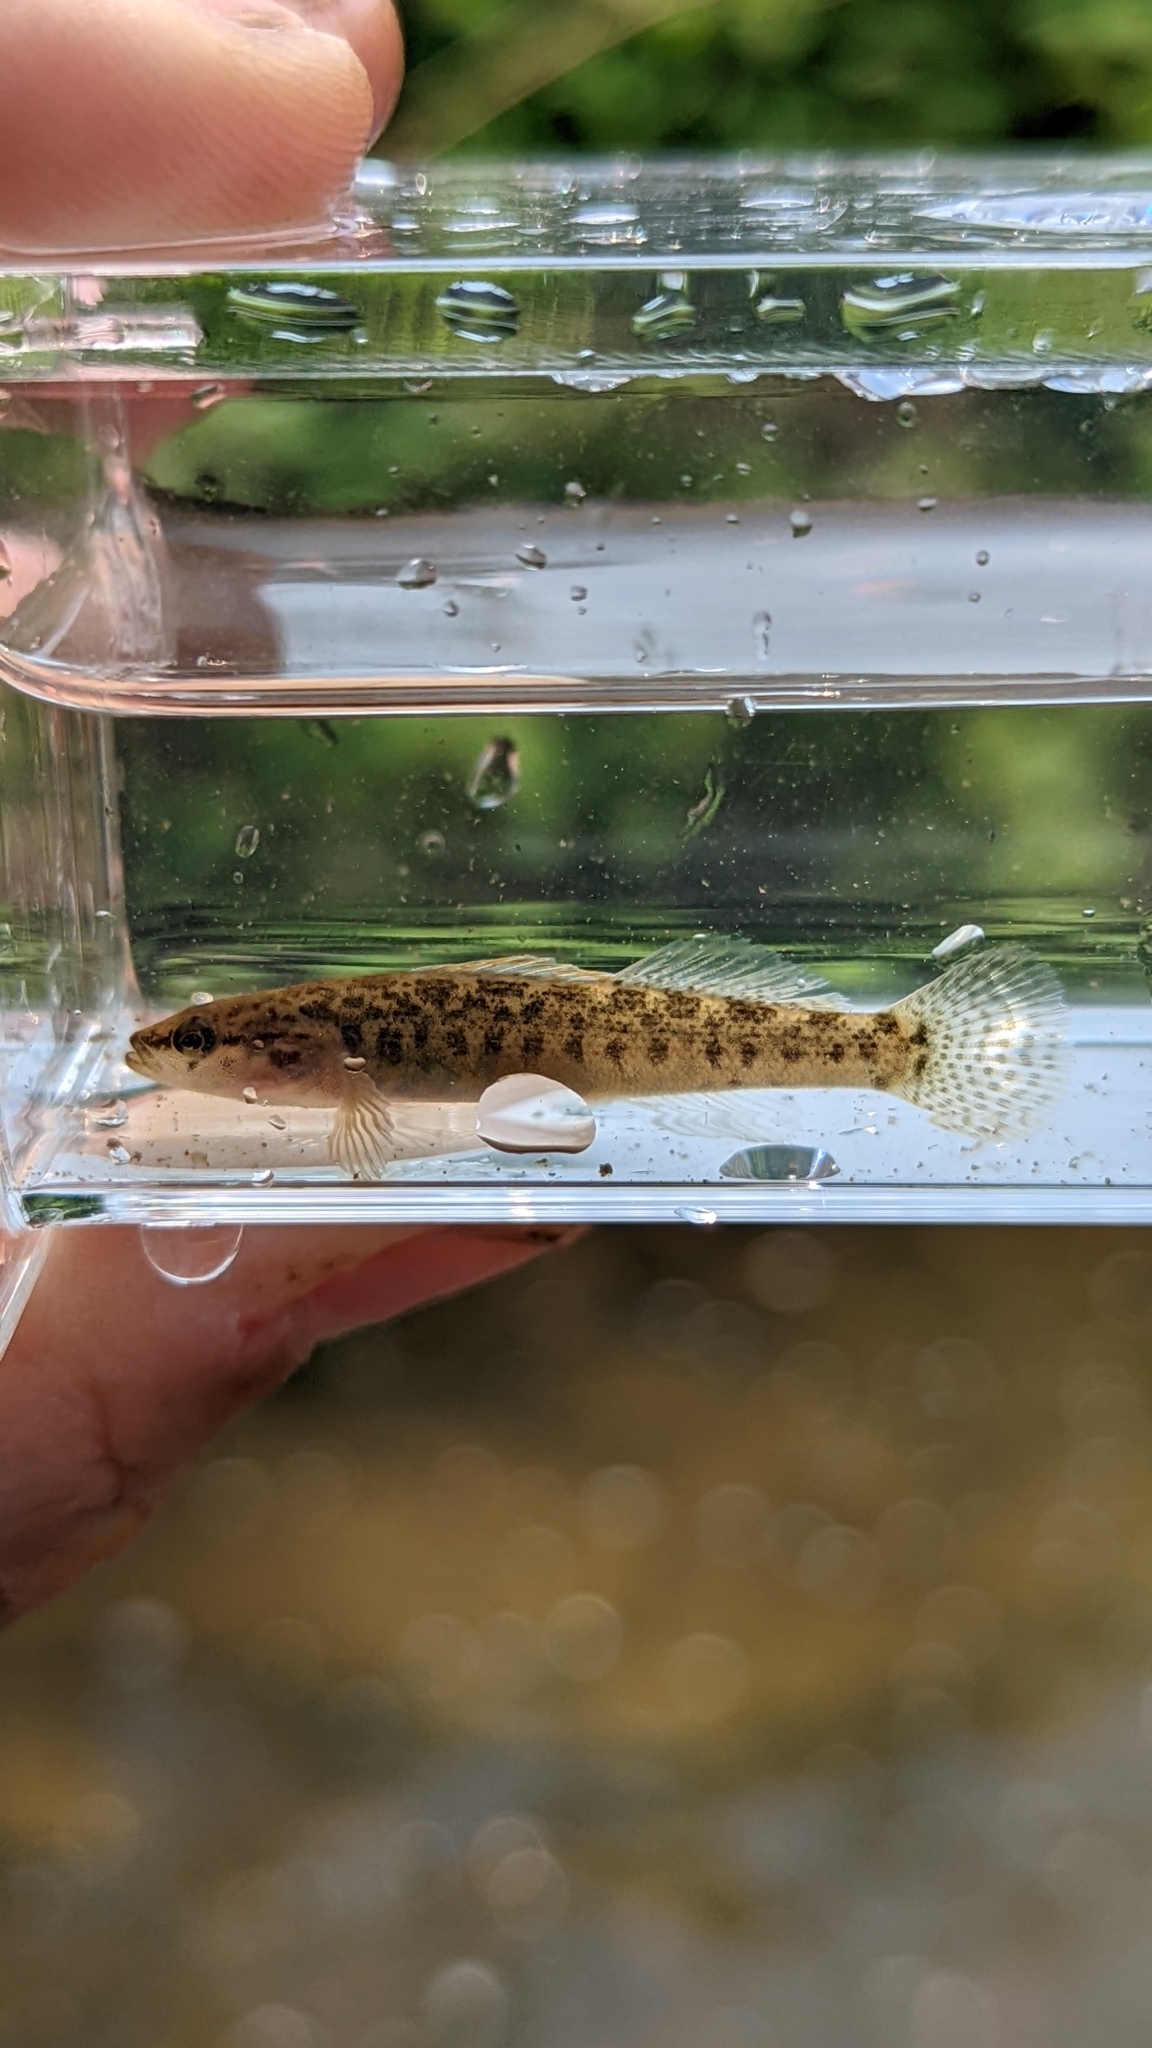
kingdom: Animalia
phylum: Chordata
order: Perciformes
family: Percidae
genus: Etheostoma
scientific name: Etheostoma flabellare
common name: Fantail darter
